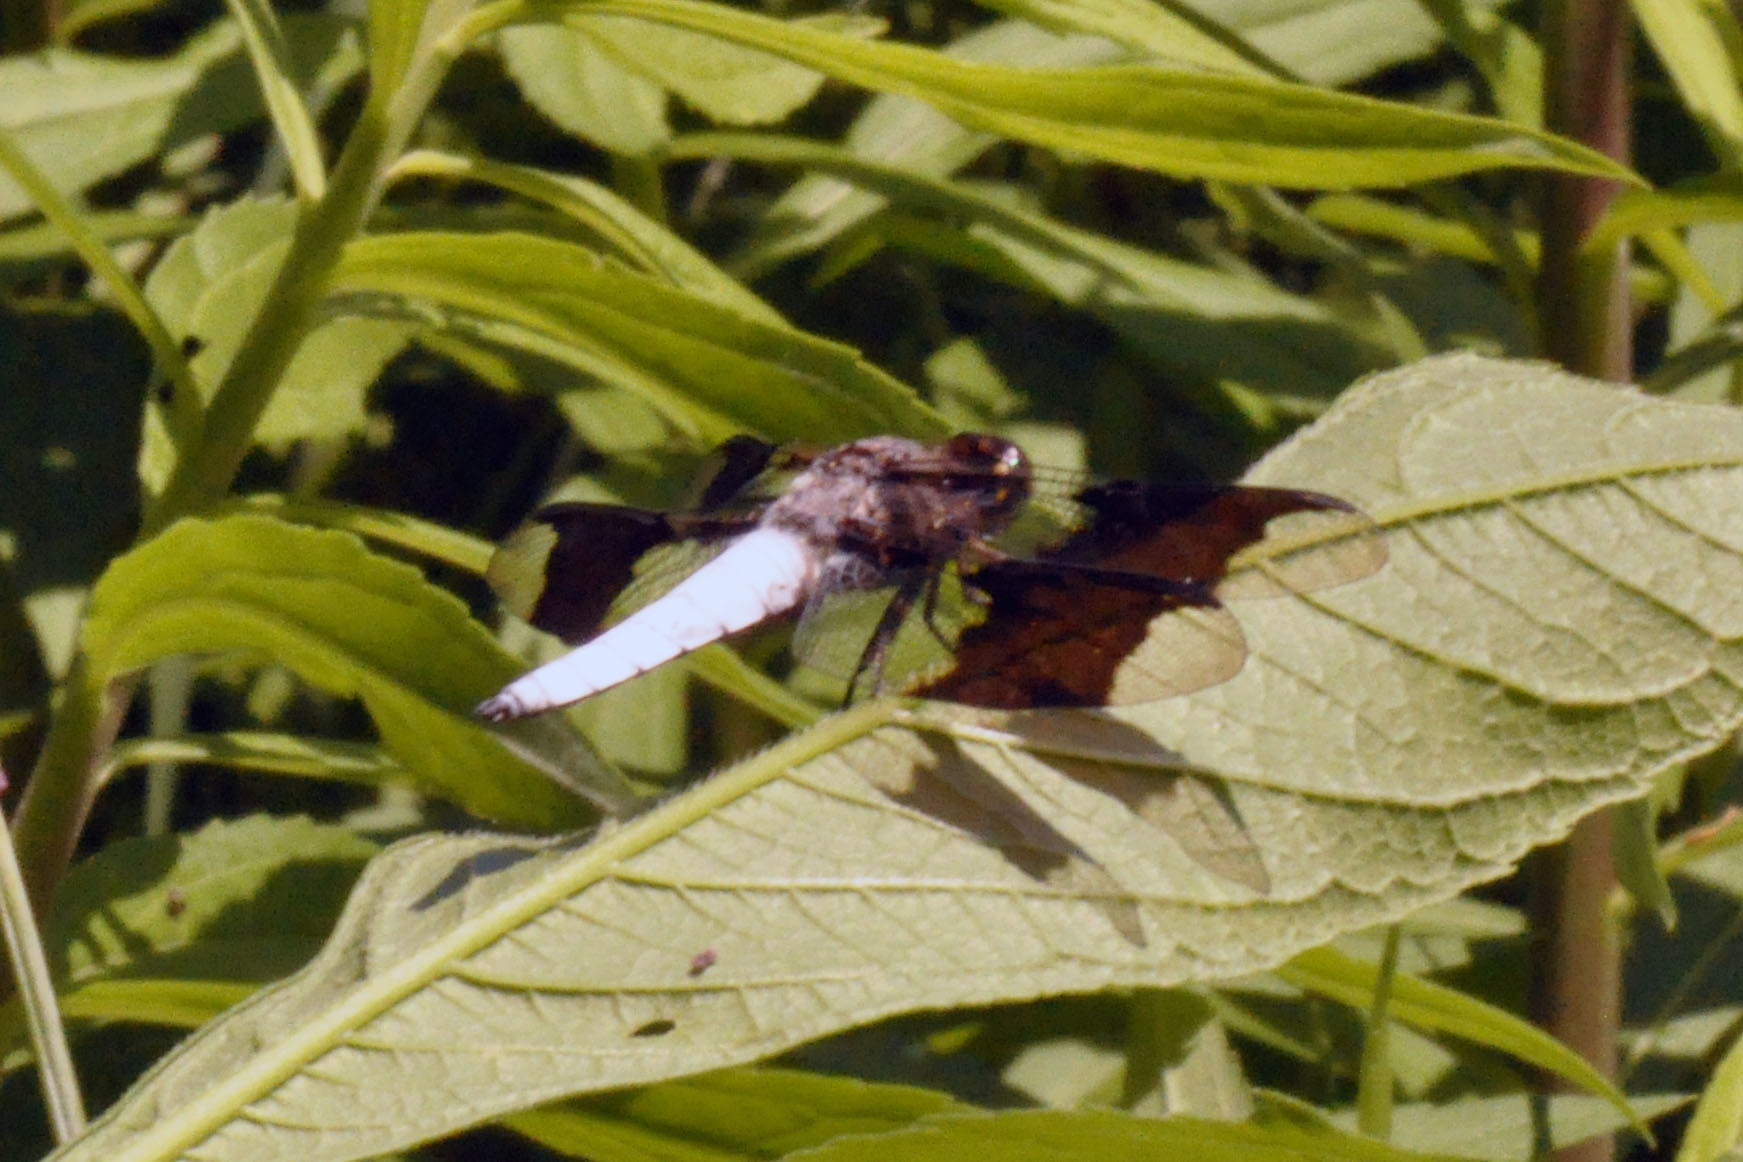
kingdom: Animalia
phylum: Arthropoda
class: Insecta
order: Odonata
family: Libellulidae
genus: Plathemis
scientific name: Plathemis lydia
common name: Common whitetail
